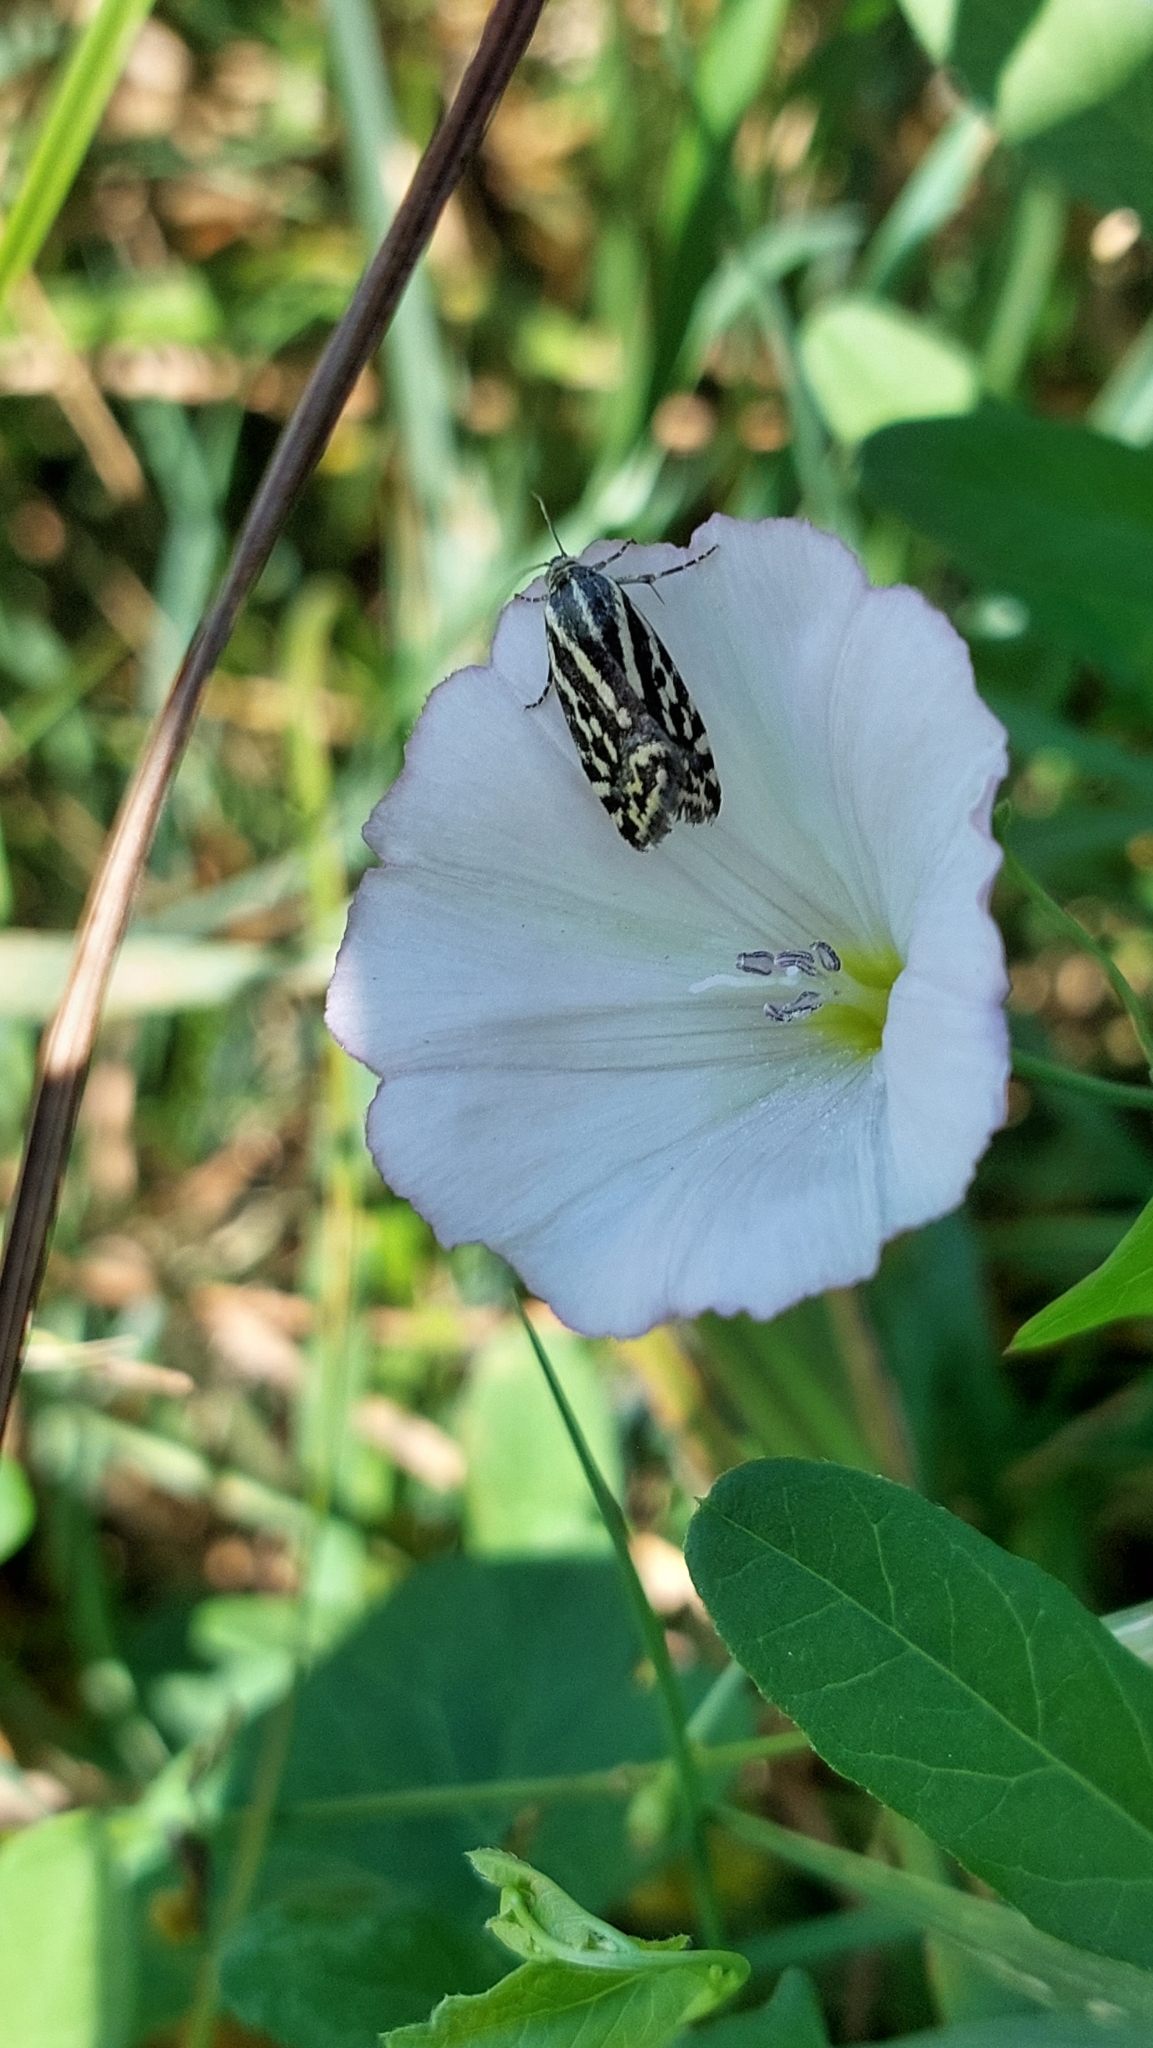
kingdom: Animalia
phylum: Arthropoda
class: Insecta
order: Lepidoptera
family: Noctuidae
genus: Acontia
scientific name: Acontia trabealis
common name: Spotted sulphur
